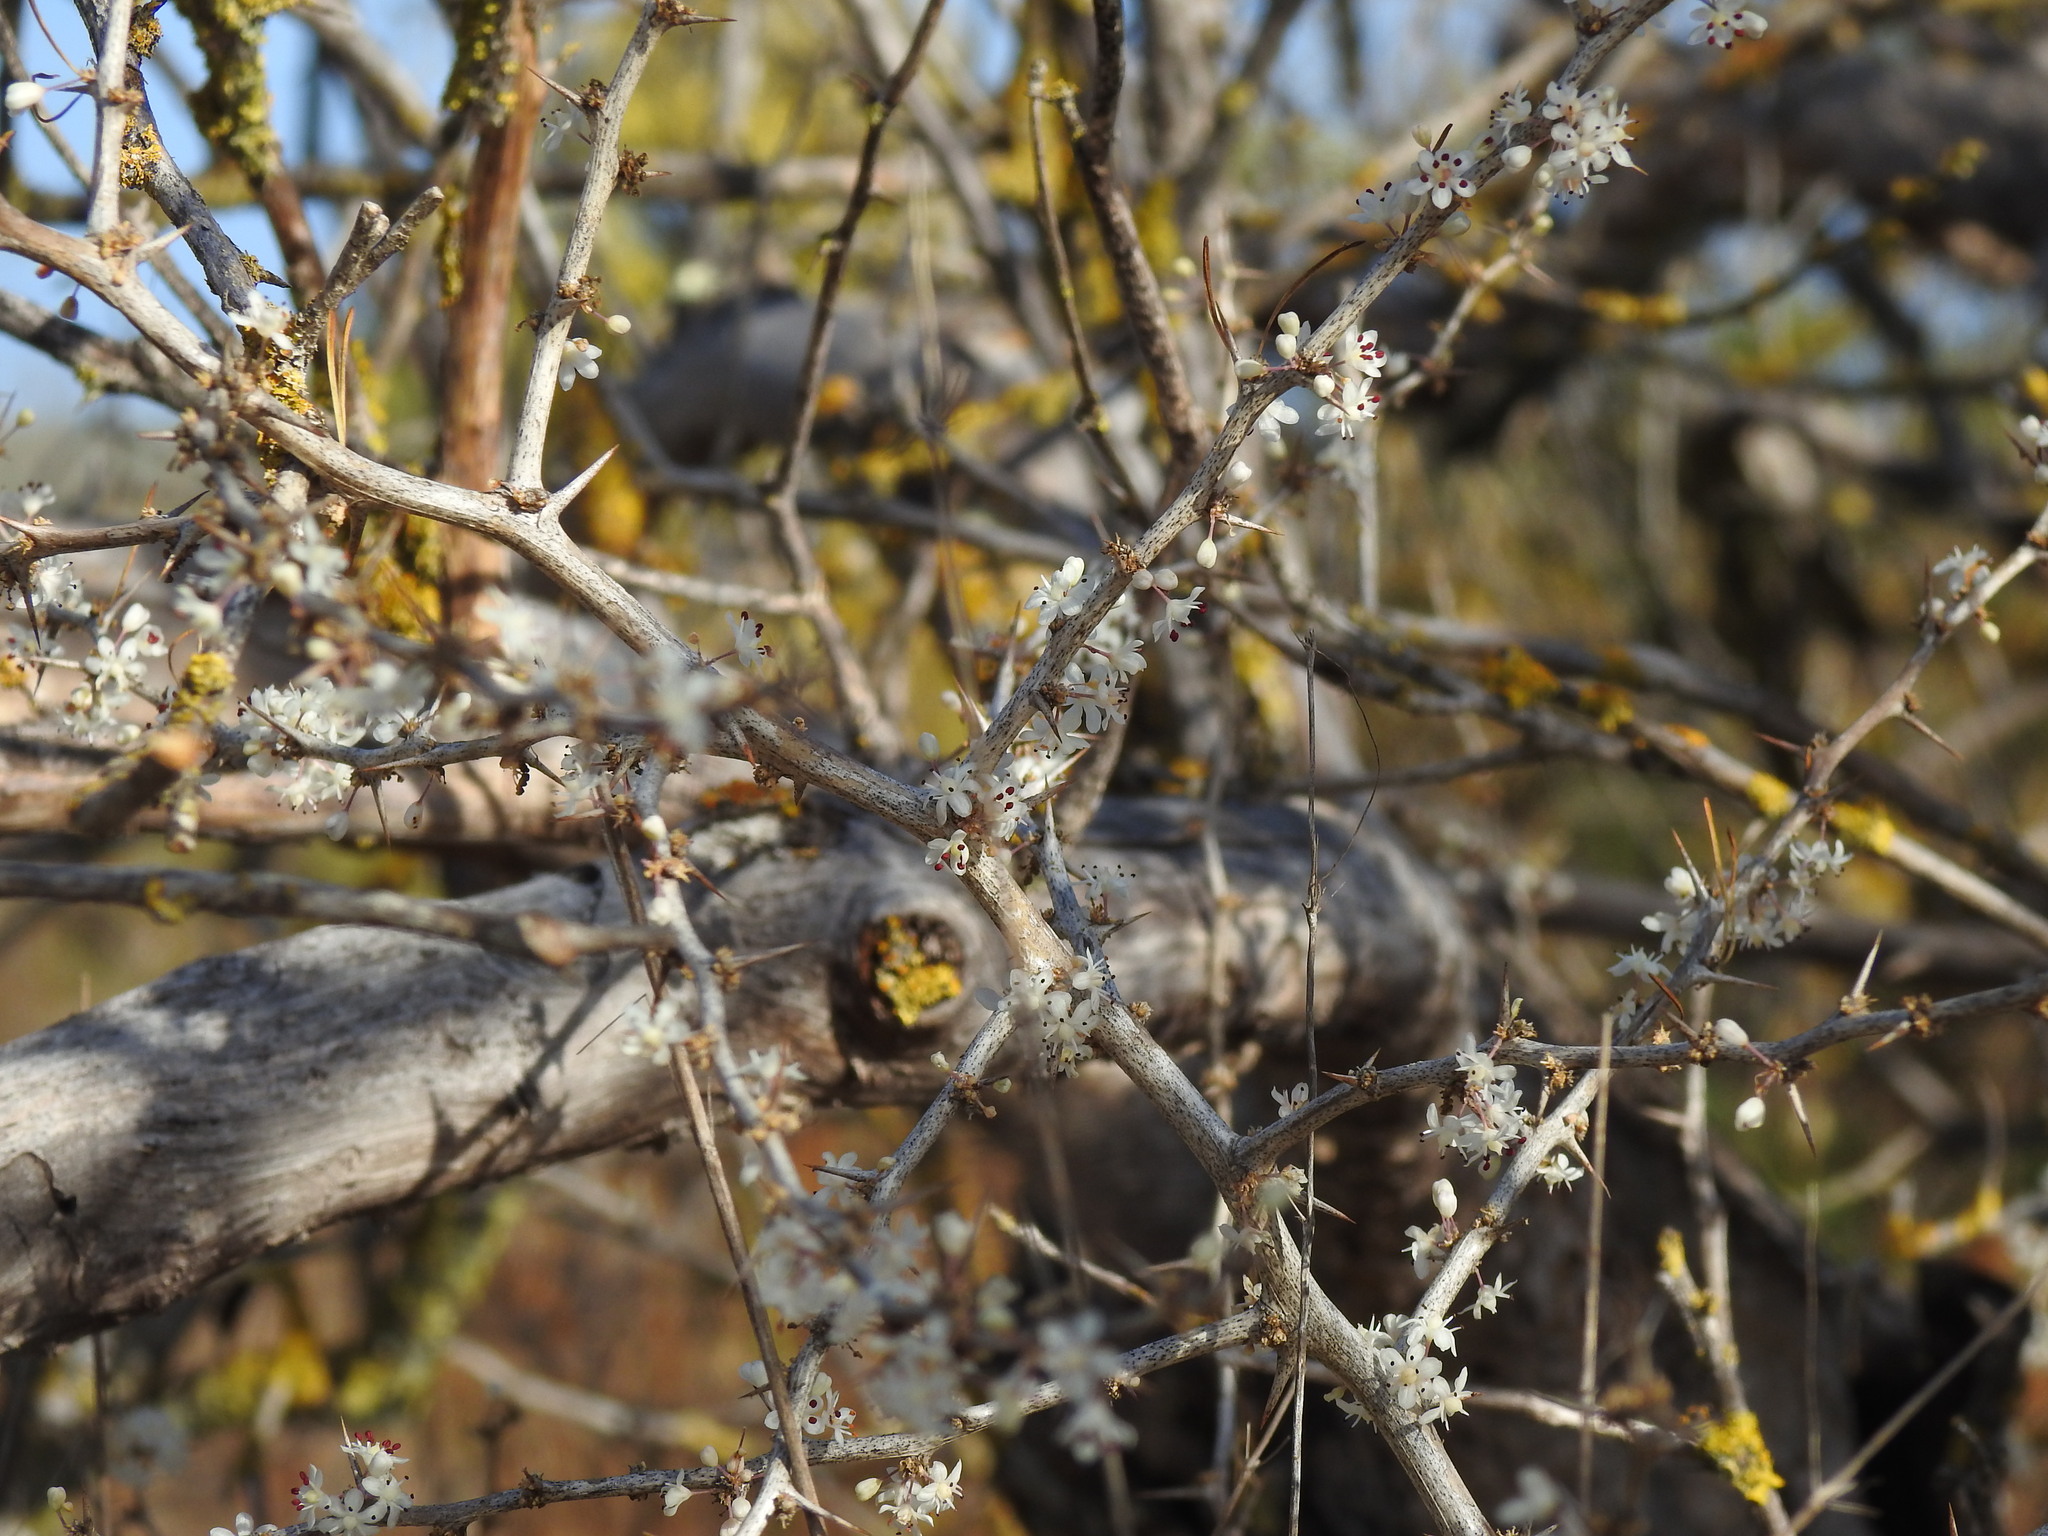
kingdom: Plantae
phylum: Tracheophyta
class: Liliopsida
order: Asparagales
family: Asparagaceae
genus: Asparagus
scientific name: Asparagus albus
